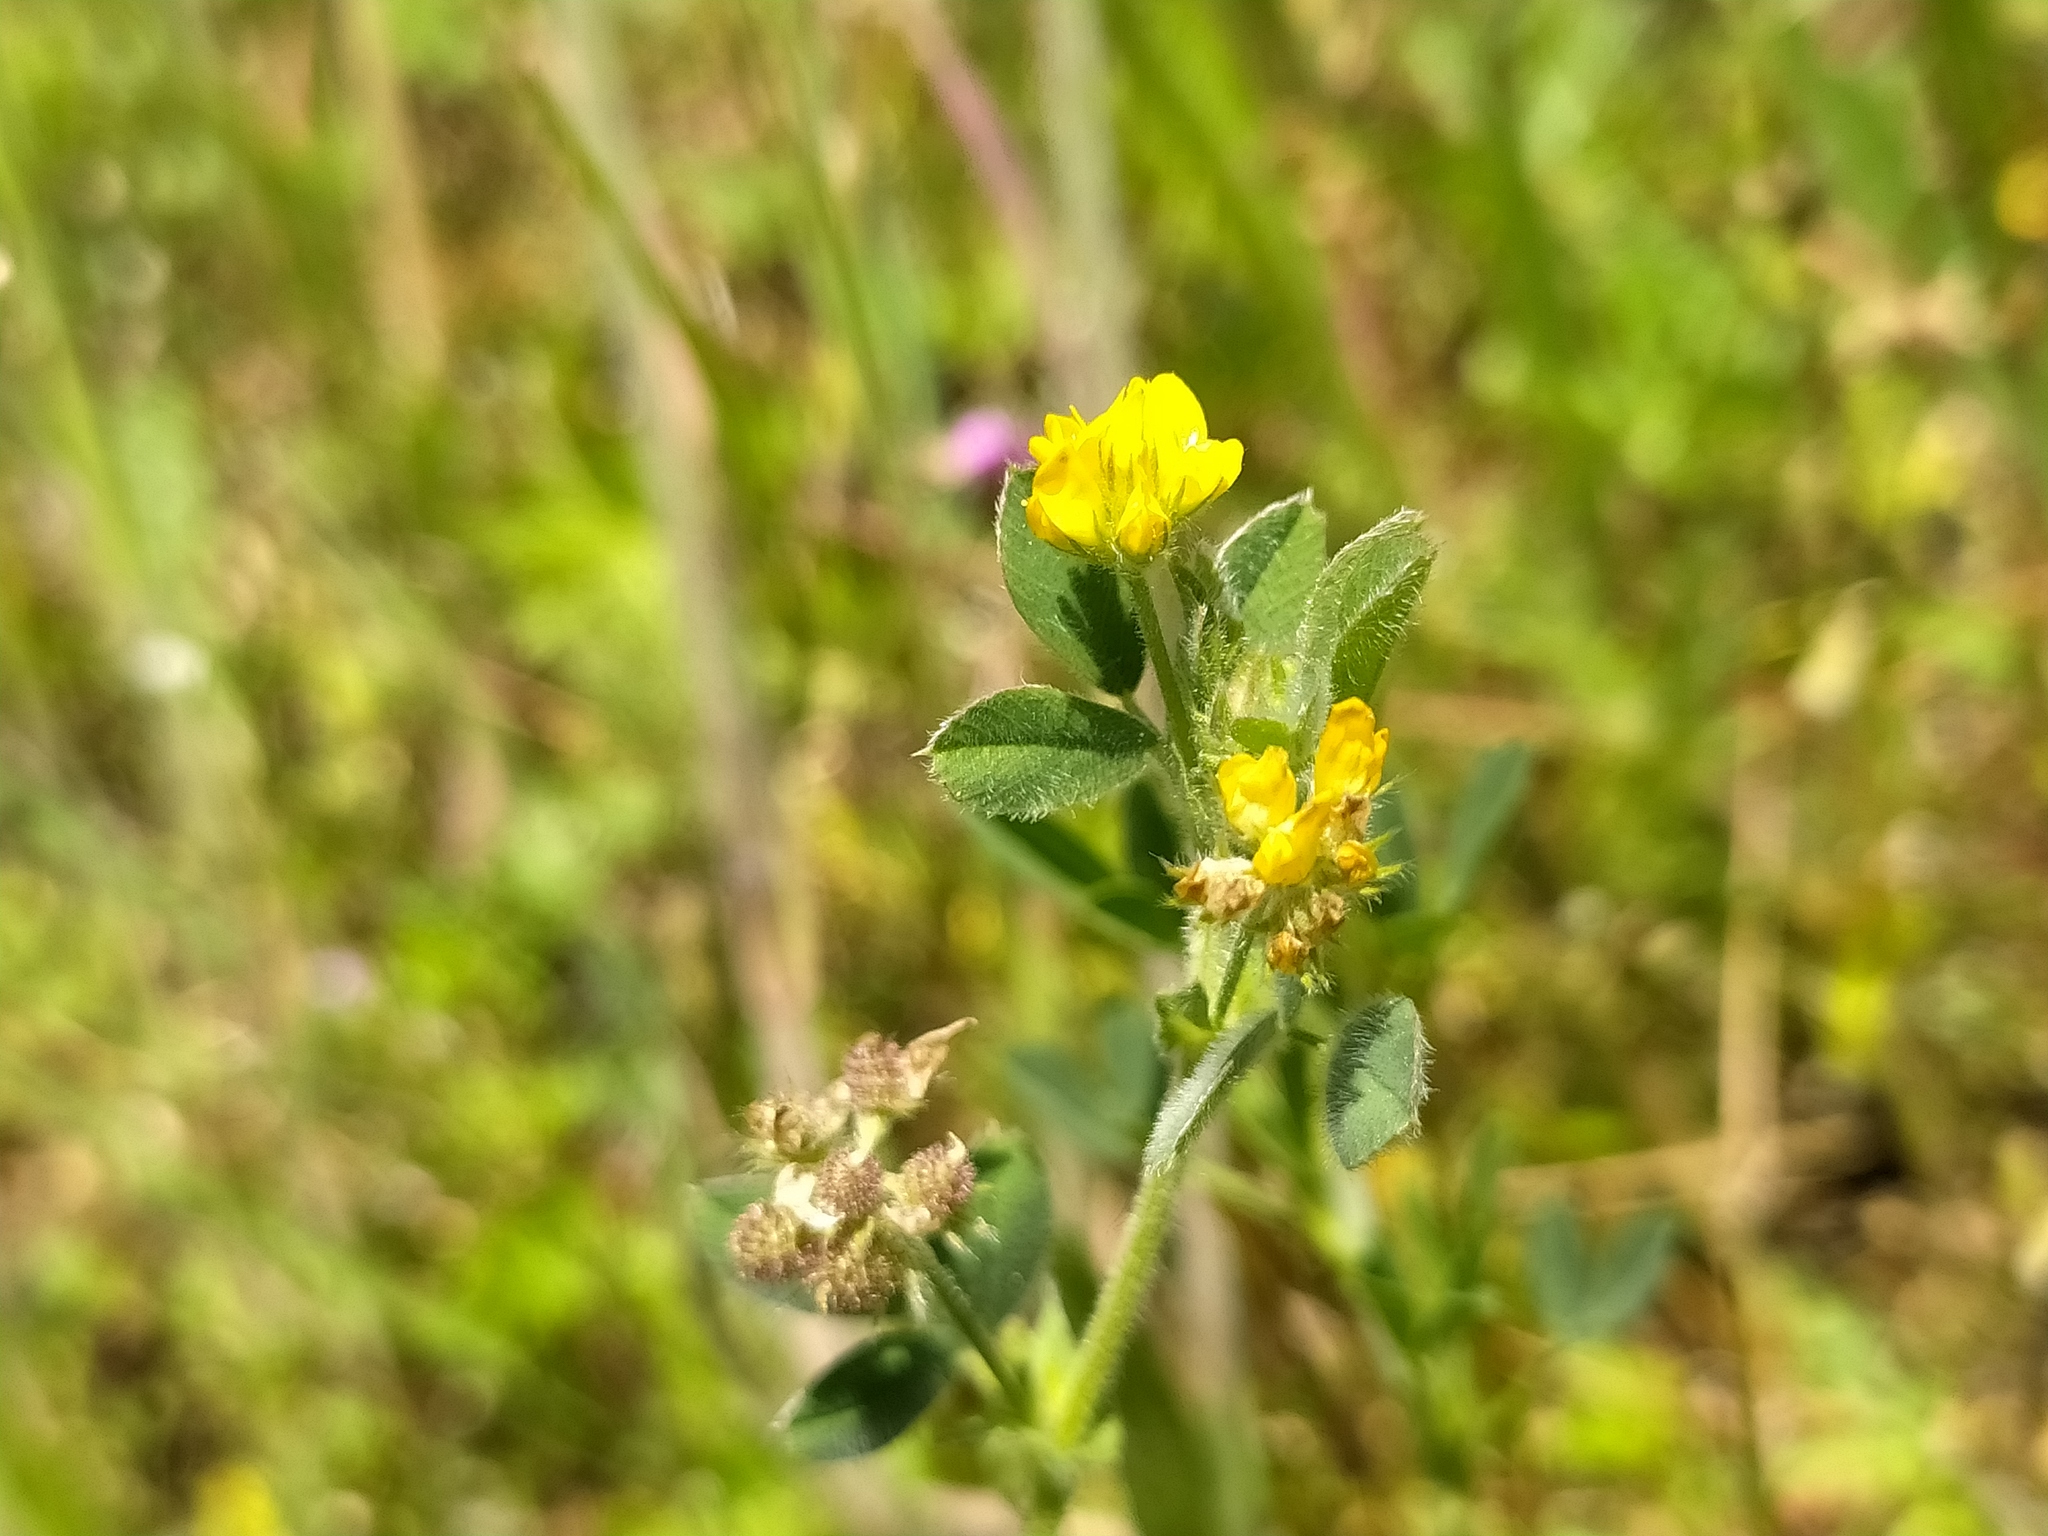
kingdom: Plantae
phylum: Tracheophyta
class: Magnoliopsida
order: Fabales
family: Fabaceae
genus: Medicago
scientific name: Medicago minima
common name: Little bur-clover
